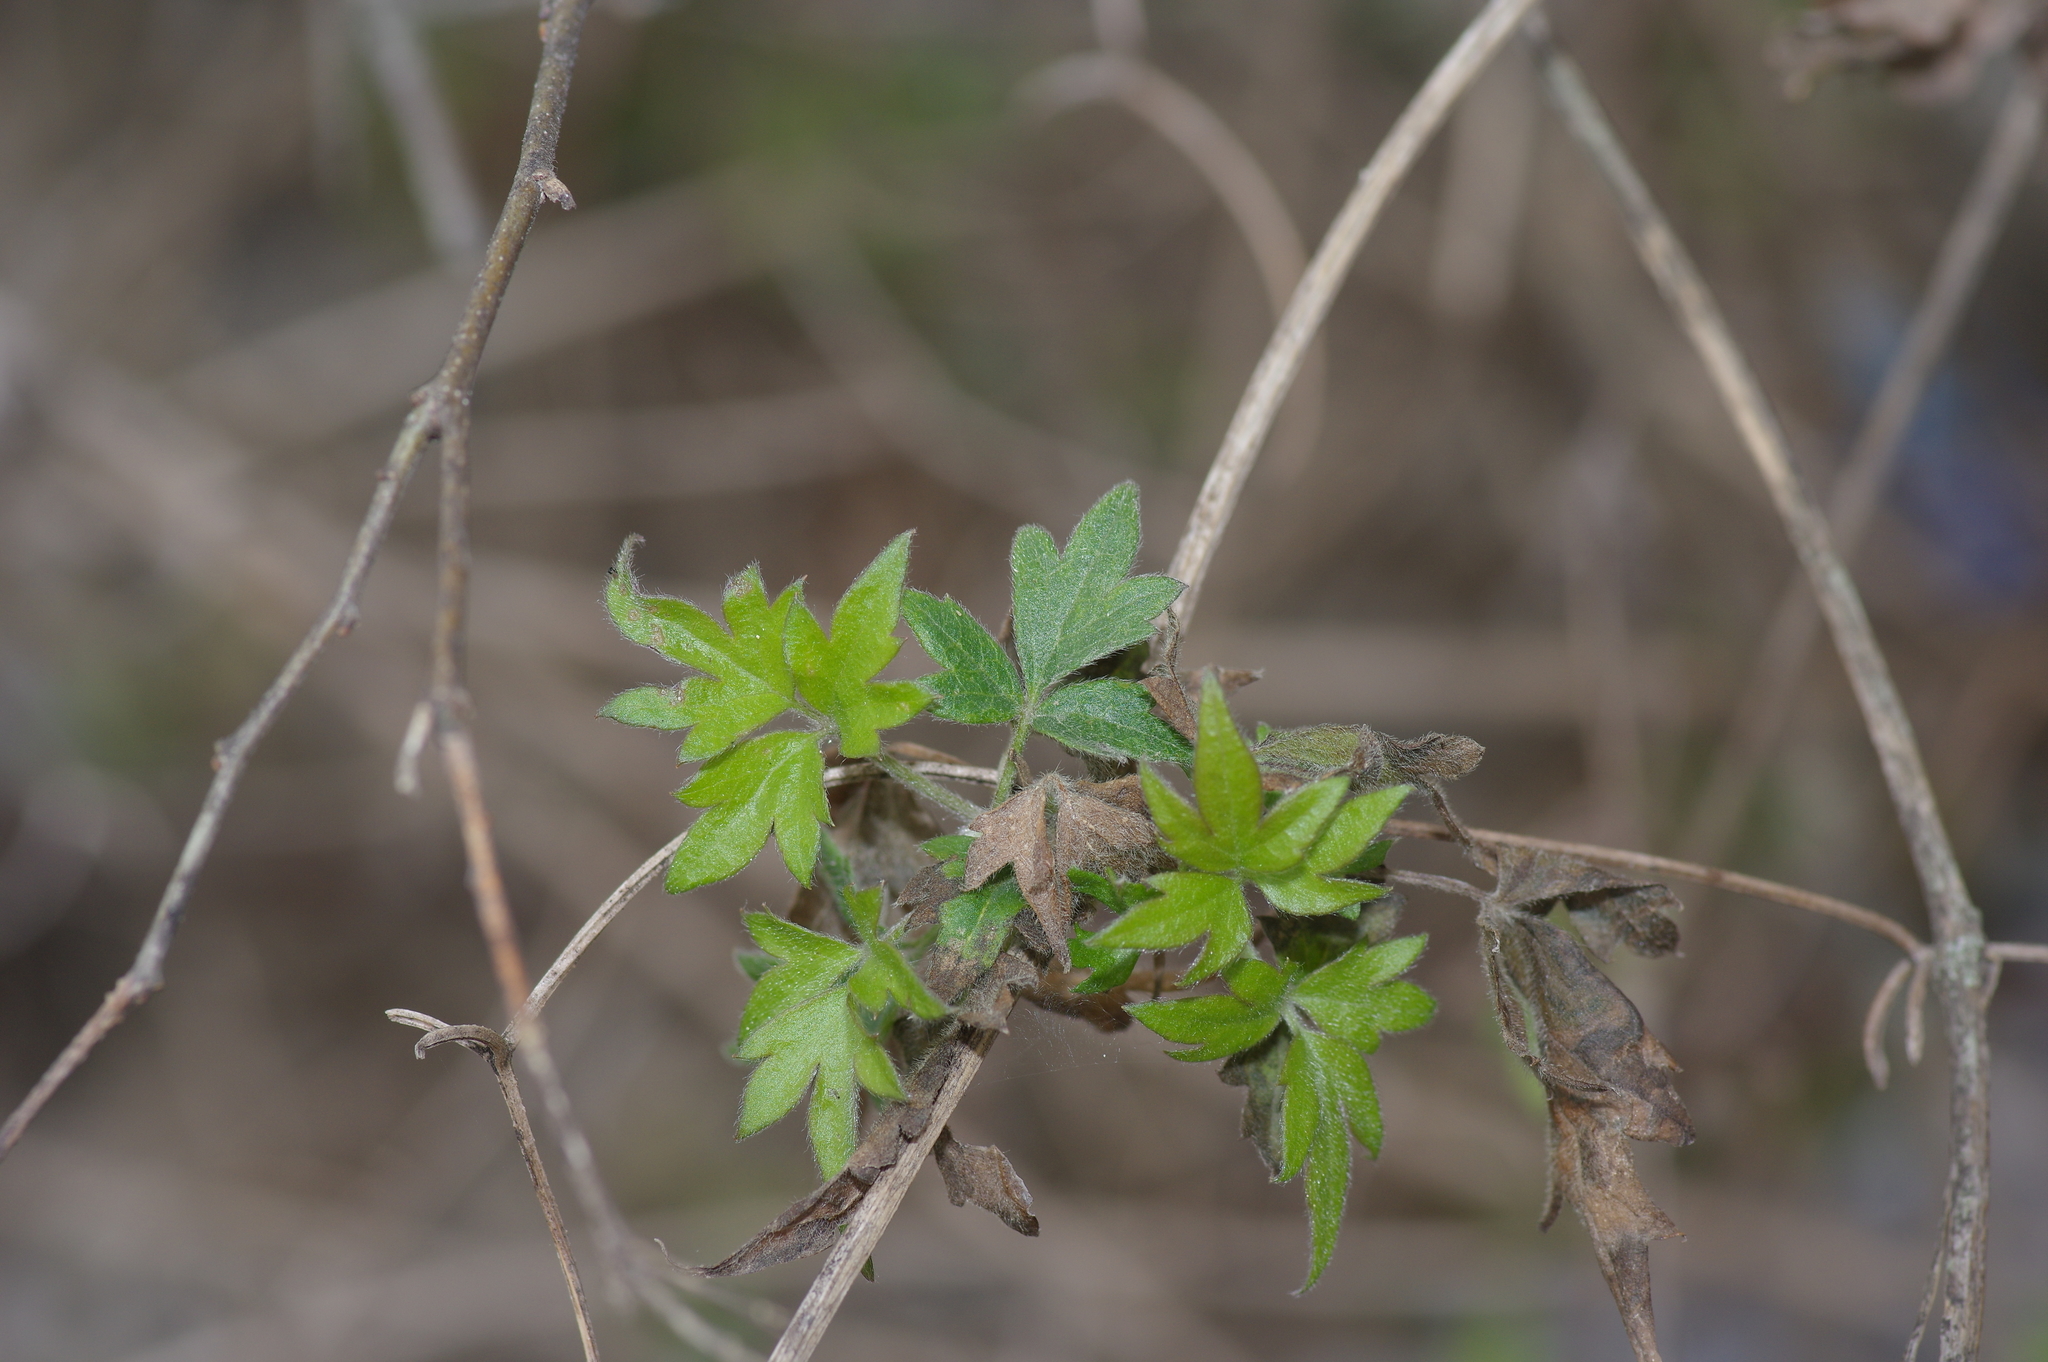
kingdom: Plantae
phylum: Tracheophyta
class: Magnoliopsida
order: Ranunculales
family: Ranunculaceae
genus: Clematis
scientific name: Clematis drummondii
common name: Texas virgin's bower
